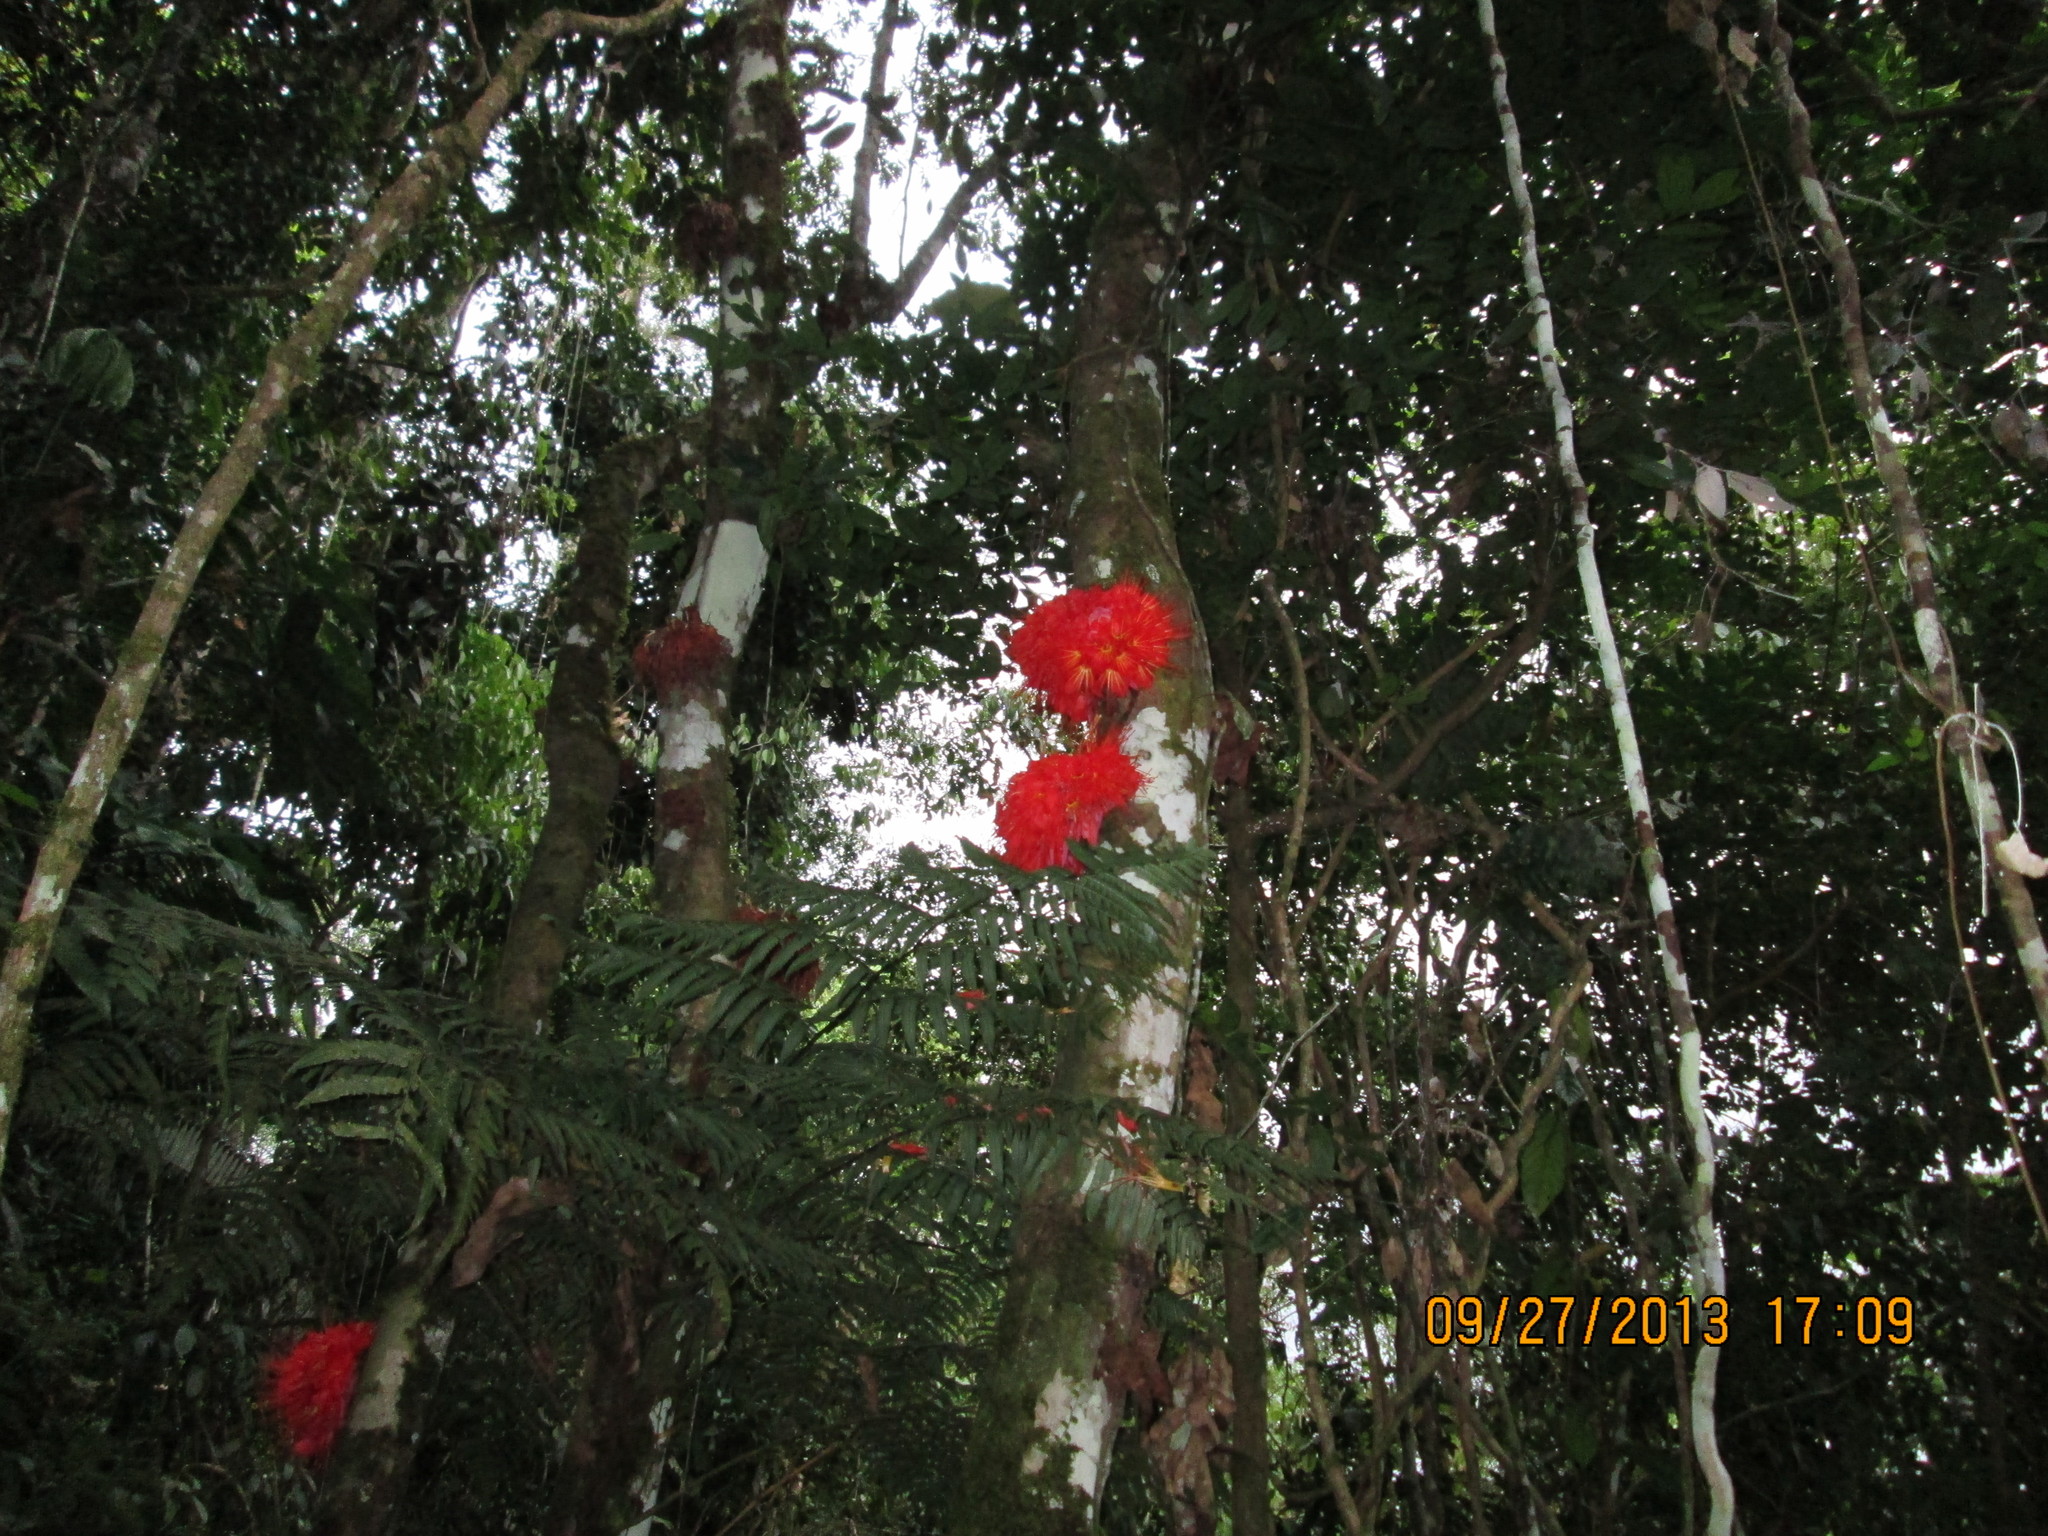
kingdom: Plantae
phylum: Tracheophyta
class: Magnoliopsida
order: Fabales
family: Fabaceae
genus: Brownea
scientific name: Brownea macrophylla
